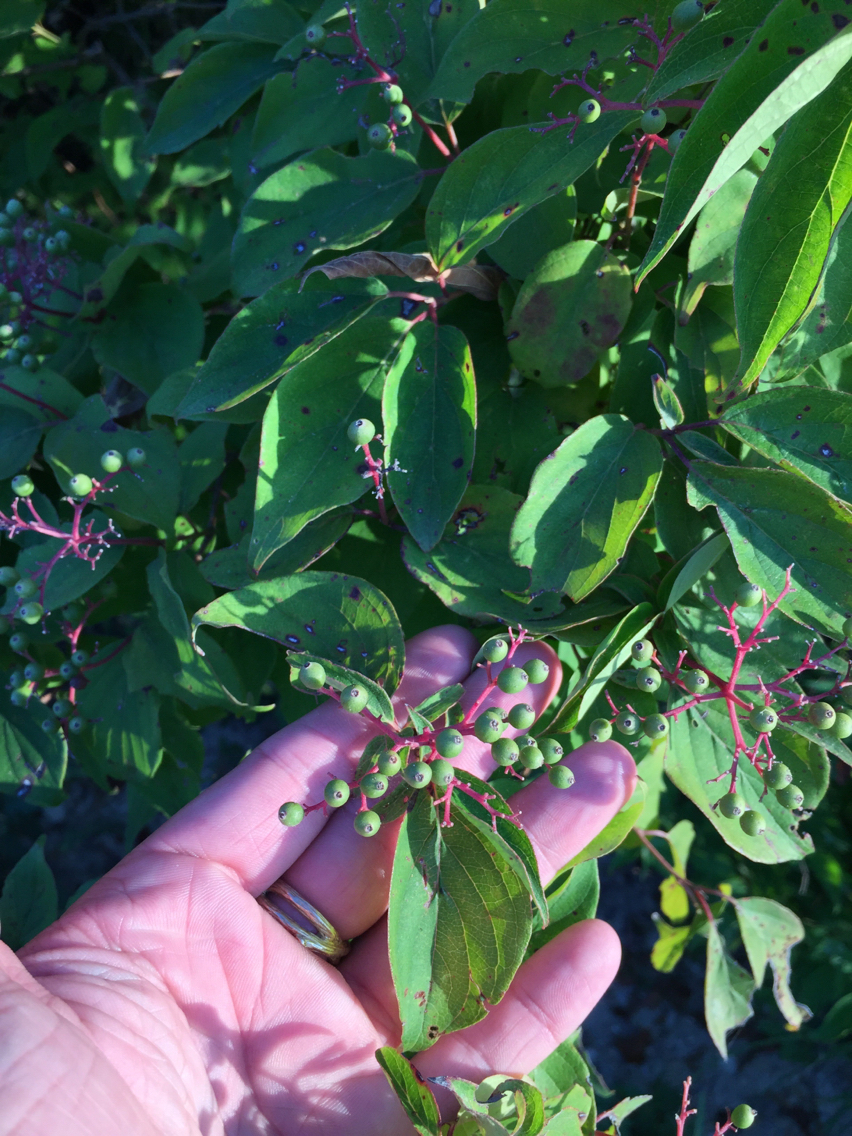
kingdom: Plantae
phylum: Tracheophyta
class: Magnoliopsida
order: Cornales
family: Cornaceae
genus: Cornus
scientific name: Cornus drummondii
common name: Rough-leaf dogwood
